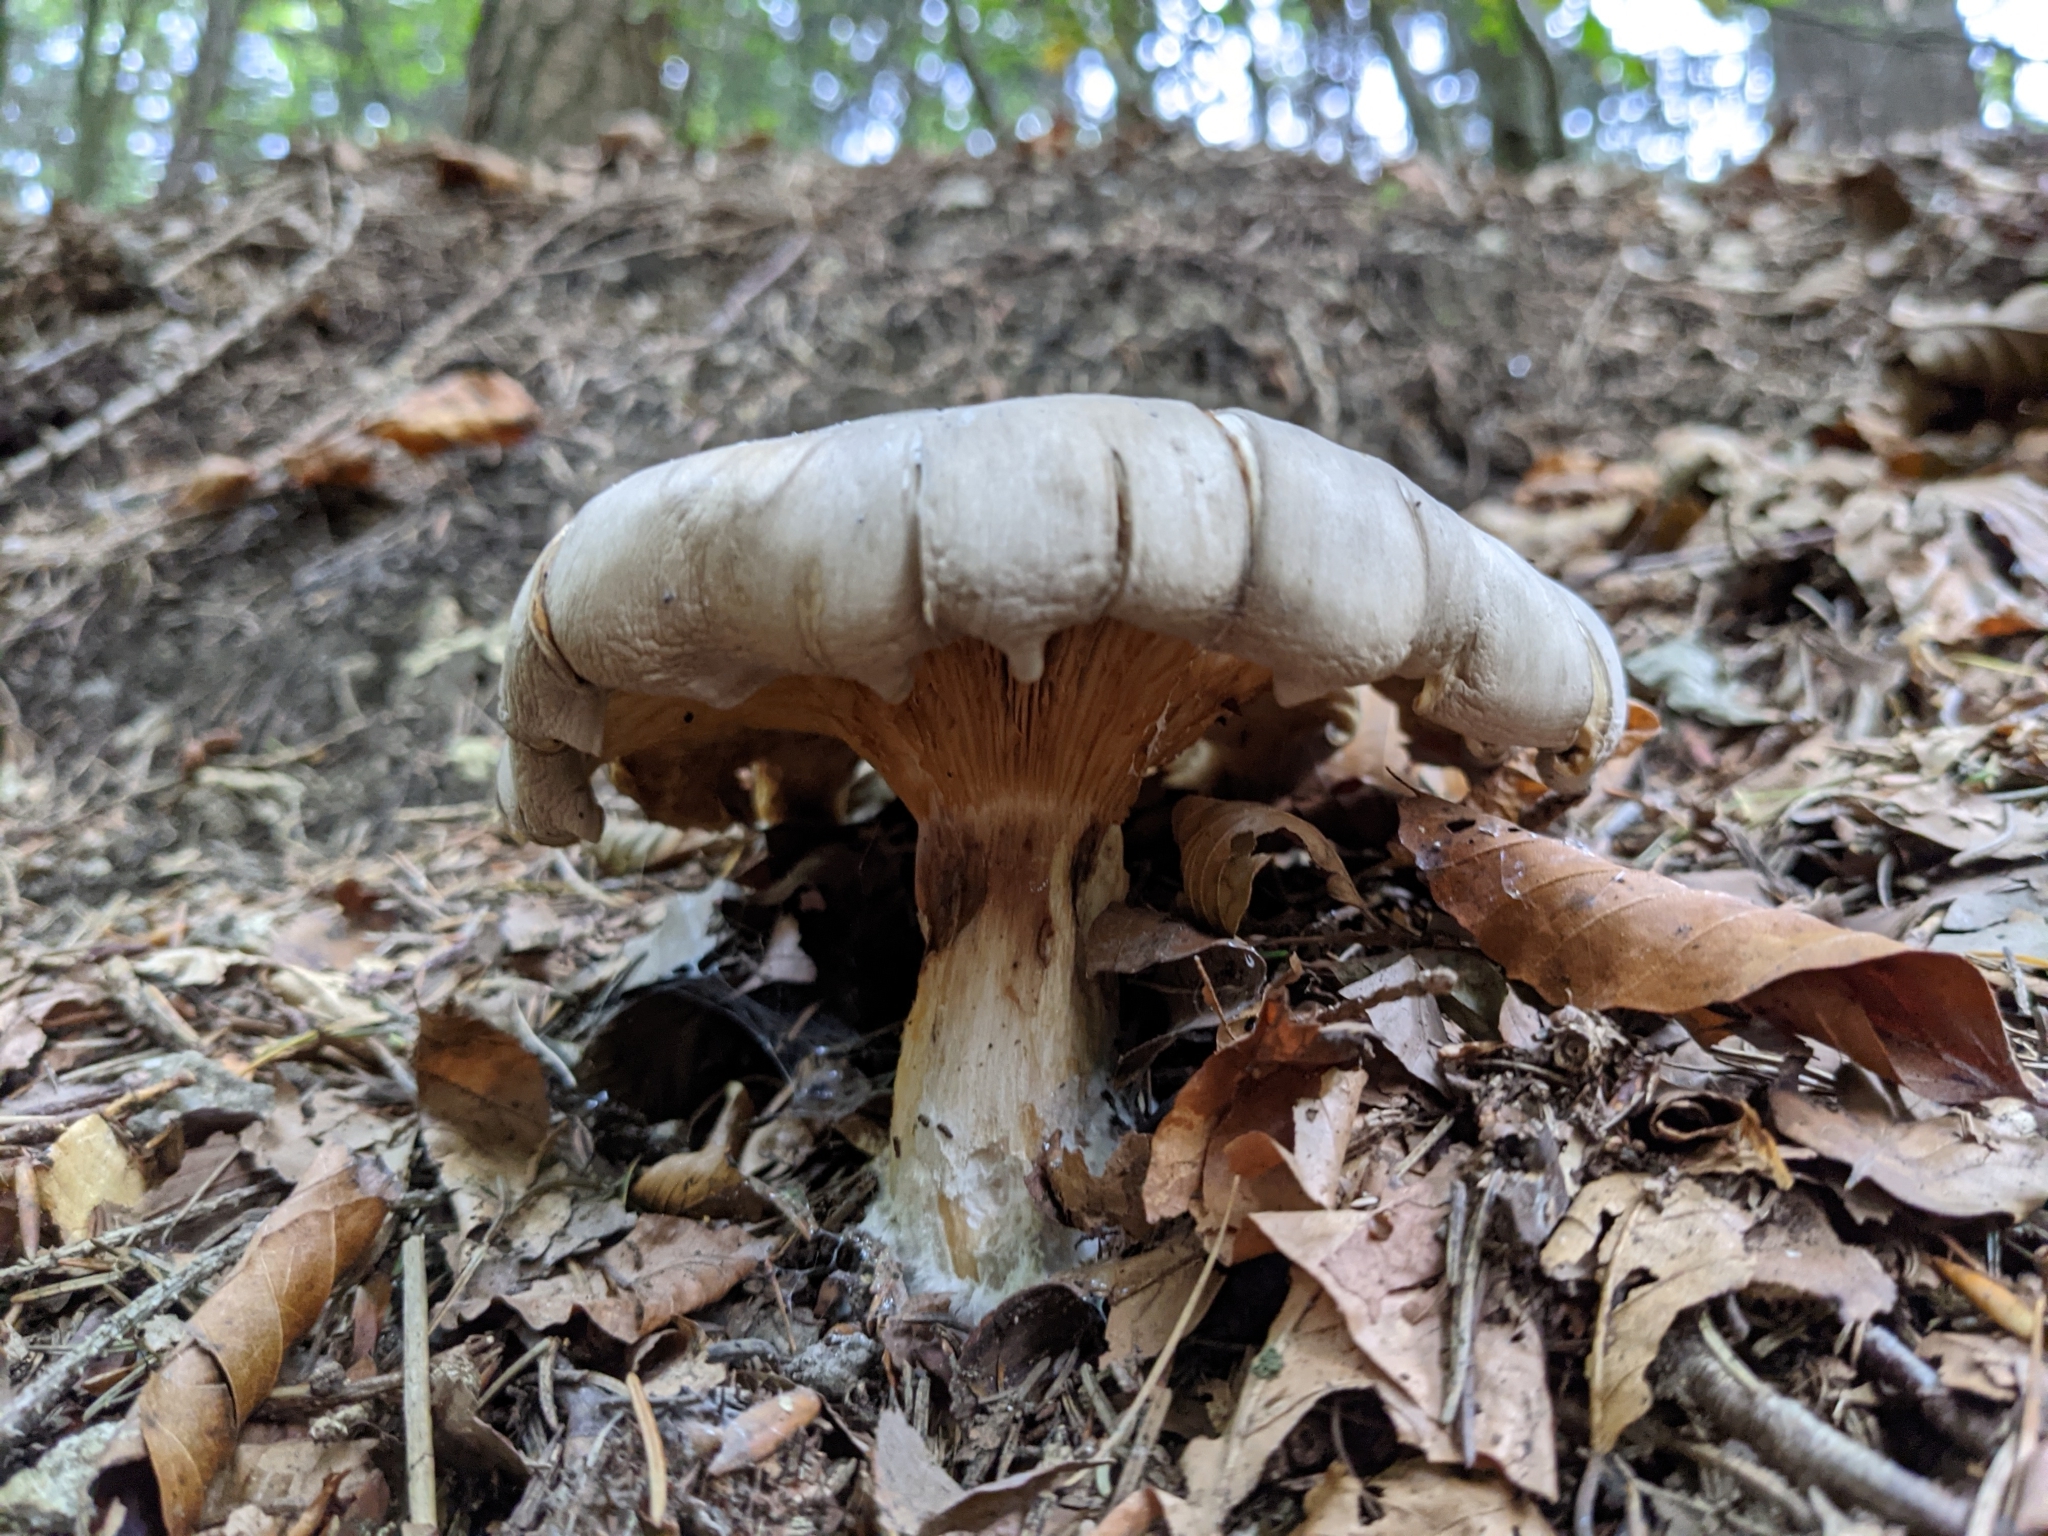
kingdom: Fungi
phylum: Basidiomycota
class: Agaricomycetes
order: Agaricales
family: Tricholomataceae
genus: Clitocybe
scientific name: Clitocybe nebularis
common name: Clouded agaric
